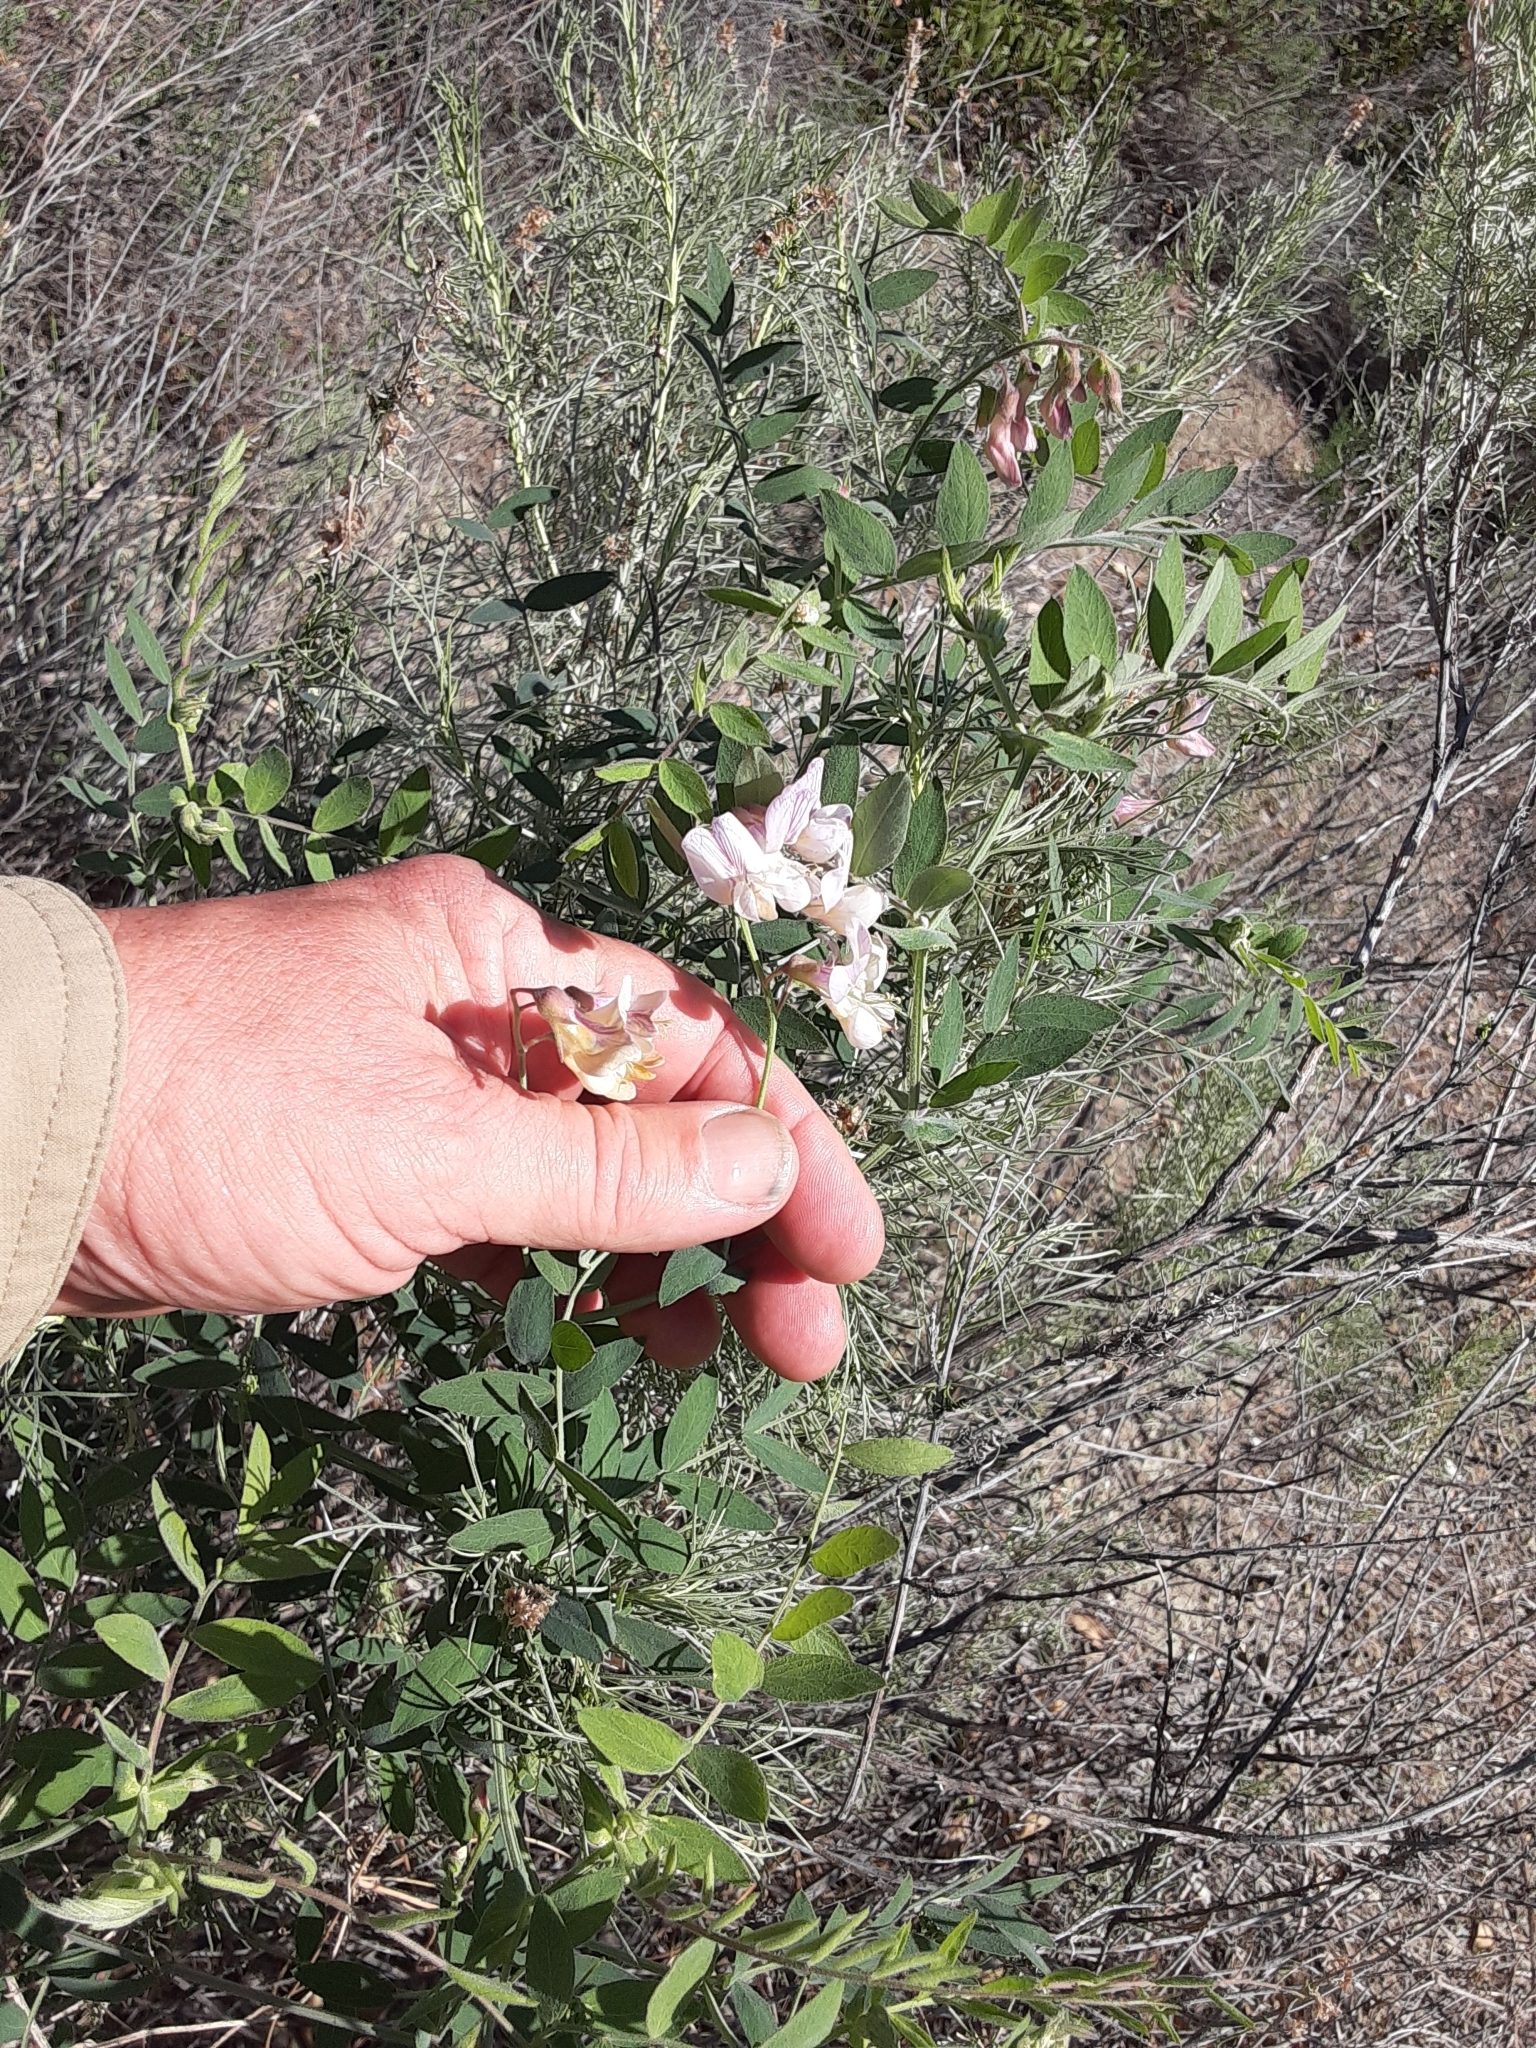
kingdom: Plantae
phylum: Tracheophyta
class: Magnoliopsida
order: Fabales
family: Fabaceae
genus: Lathyrus
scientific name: Lathyrus vestitus
